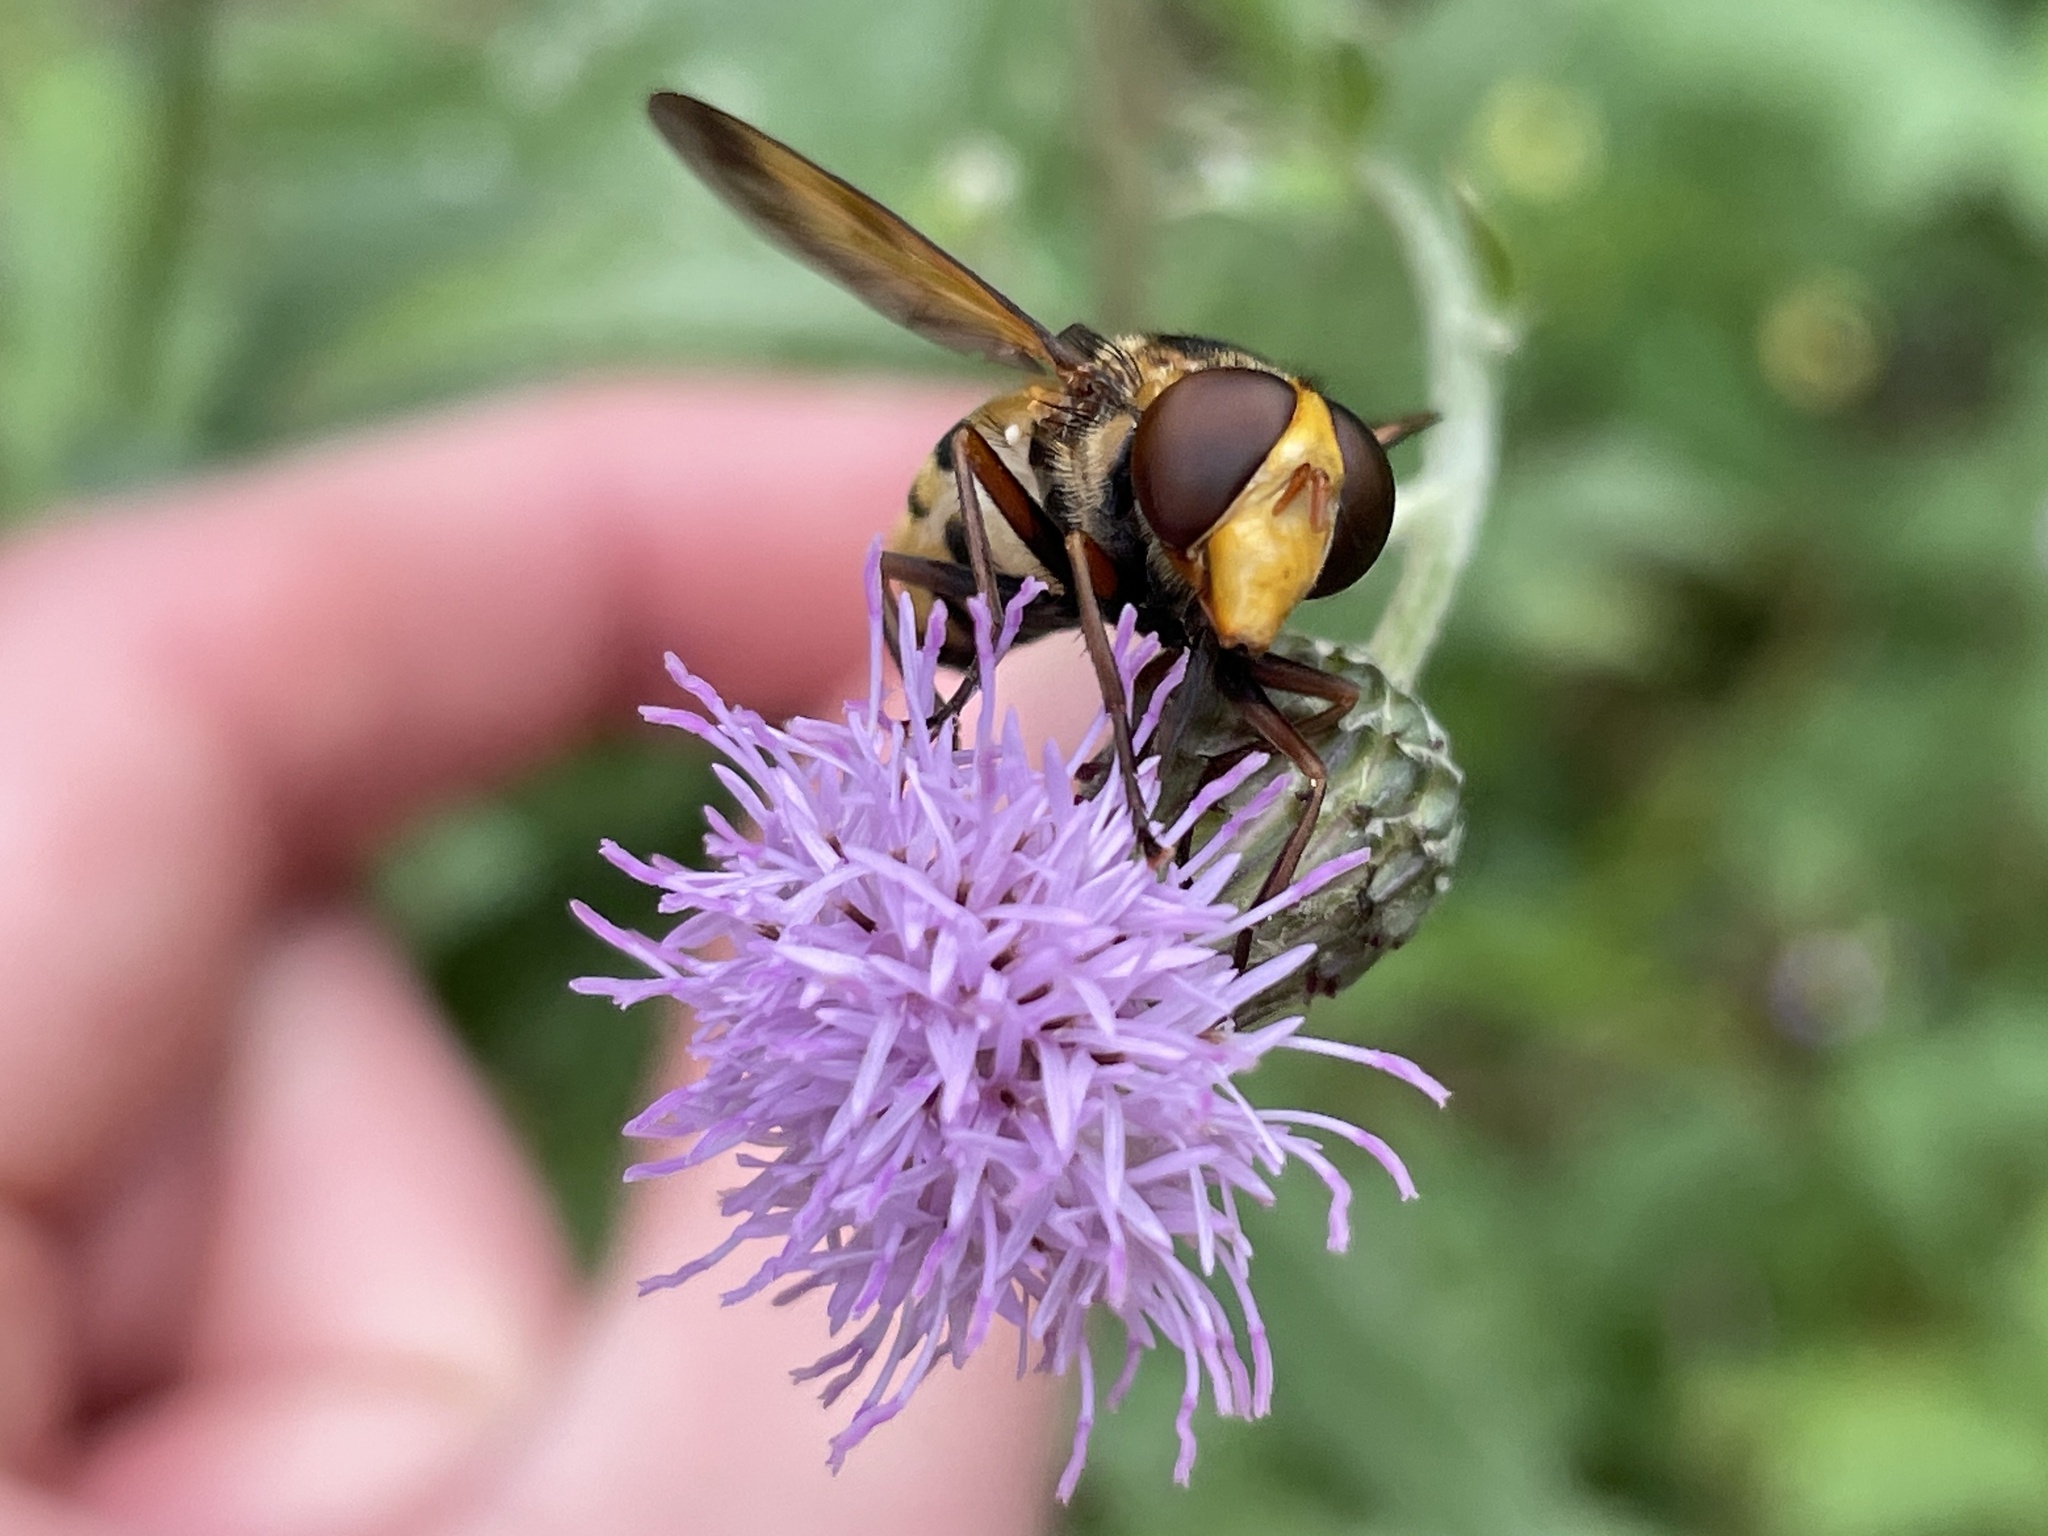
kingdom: Animalia
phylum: Arthropoda
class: Insecta
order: Diptera
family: Syrphidae
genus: Volucella
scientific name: Volucella inanis
